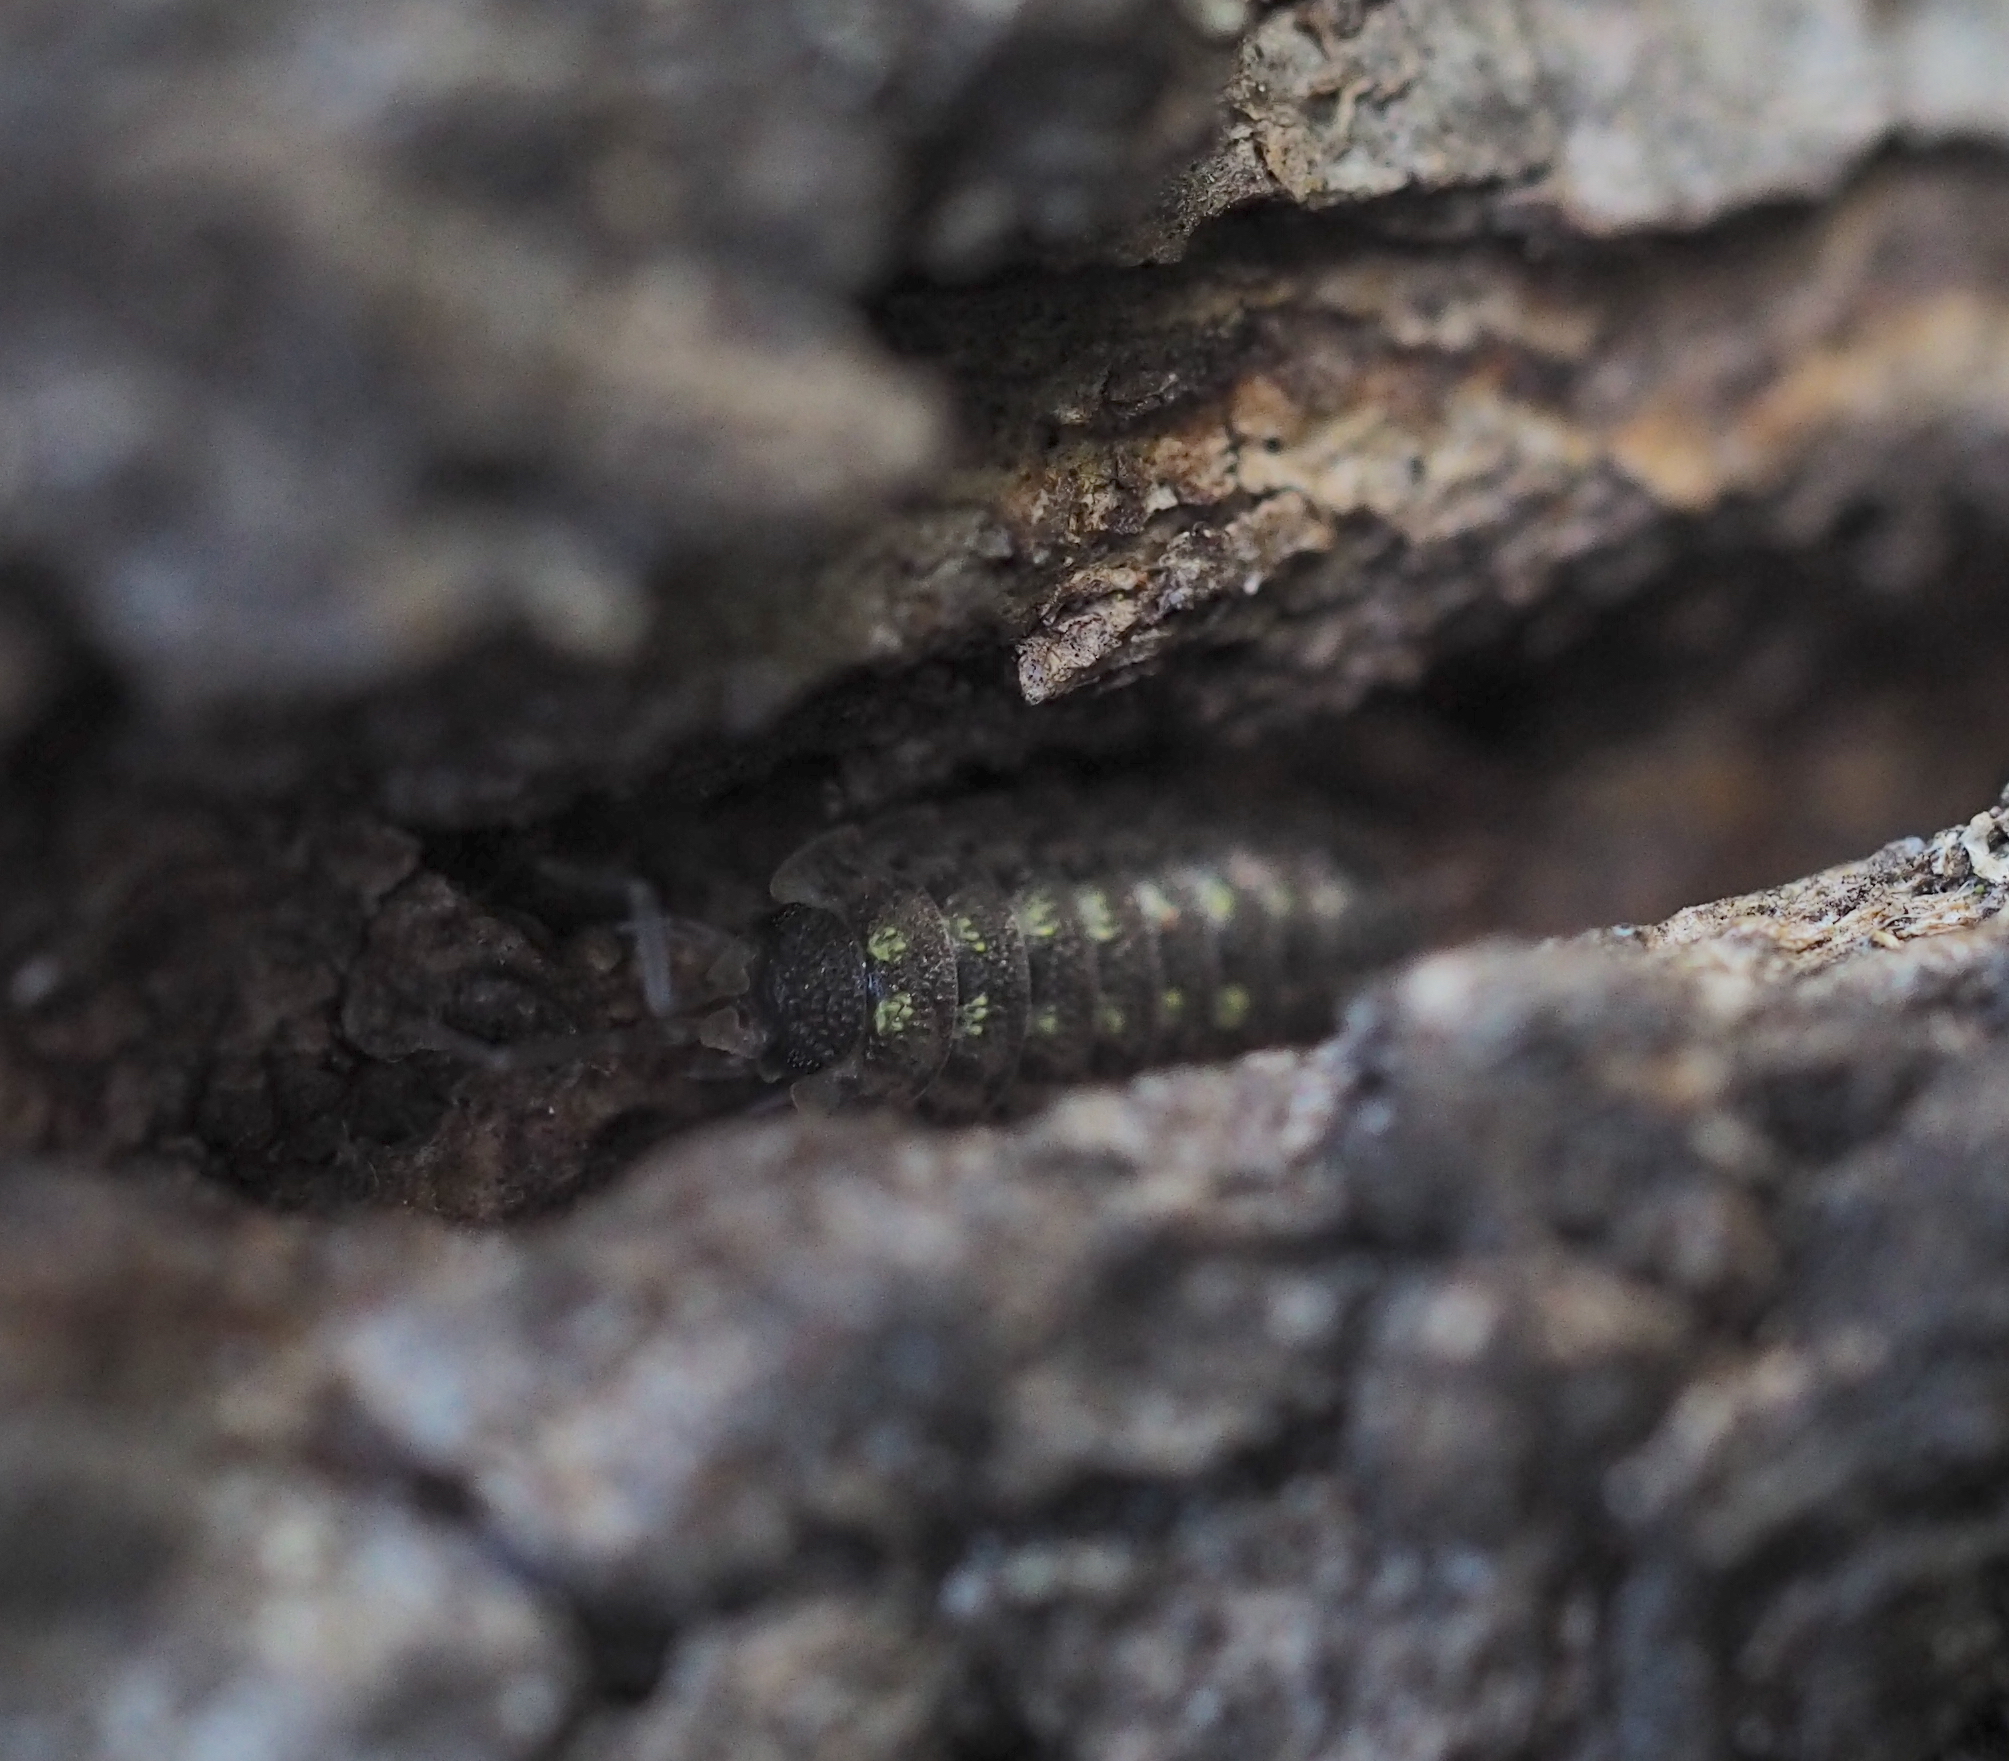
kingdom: Animalia
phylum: Arthropoda
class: Malacostraca
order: Isopoda
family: Porcellionidae
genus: Porcellio
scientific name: Porcellio spinicornis
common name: Painted woodlouse
